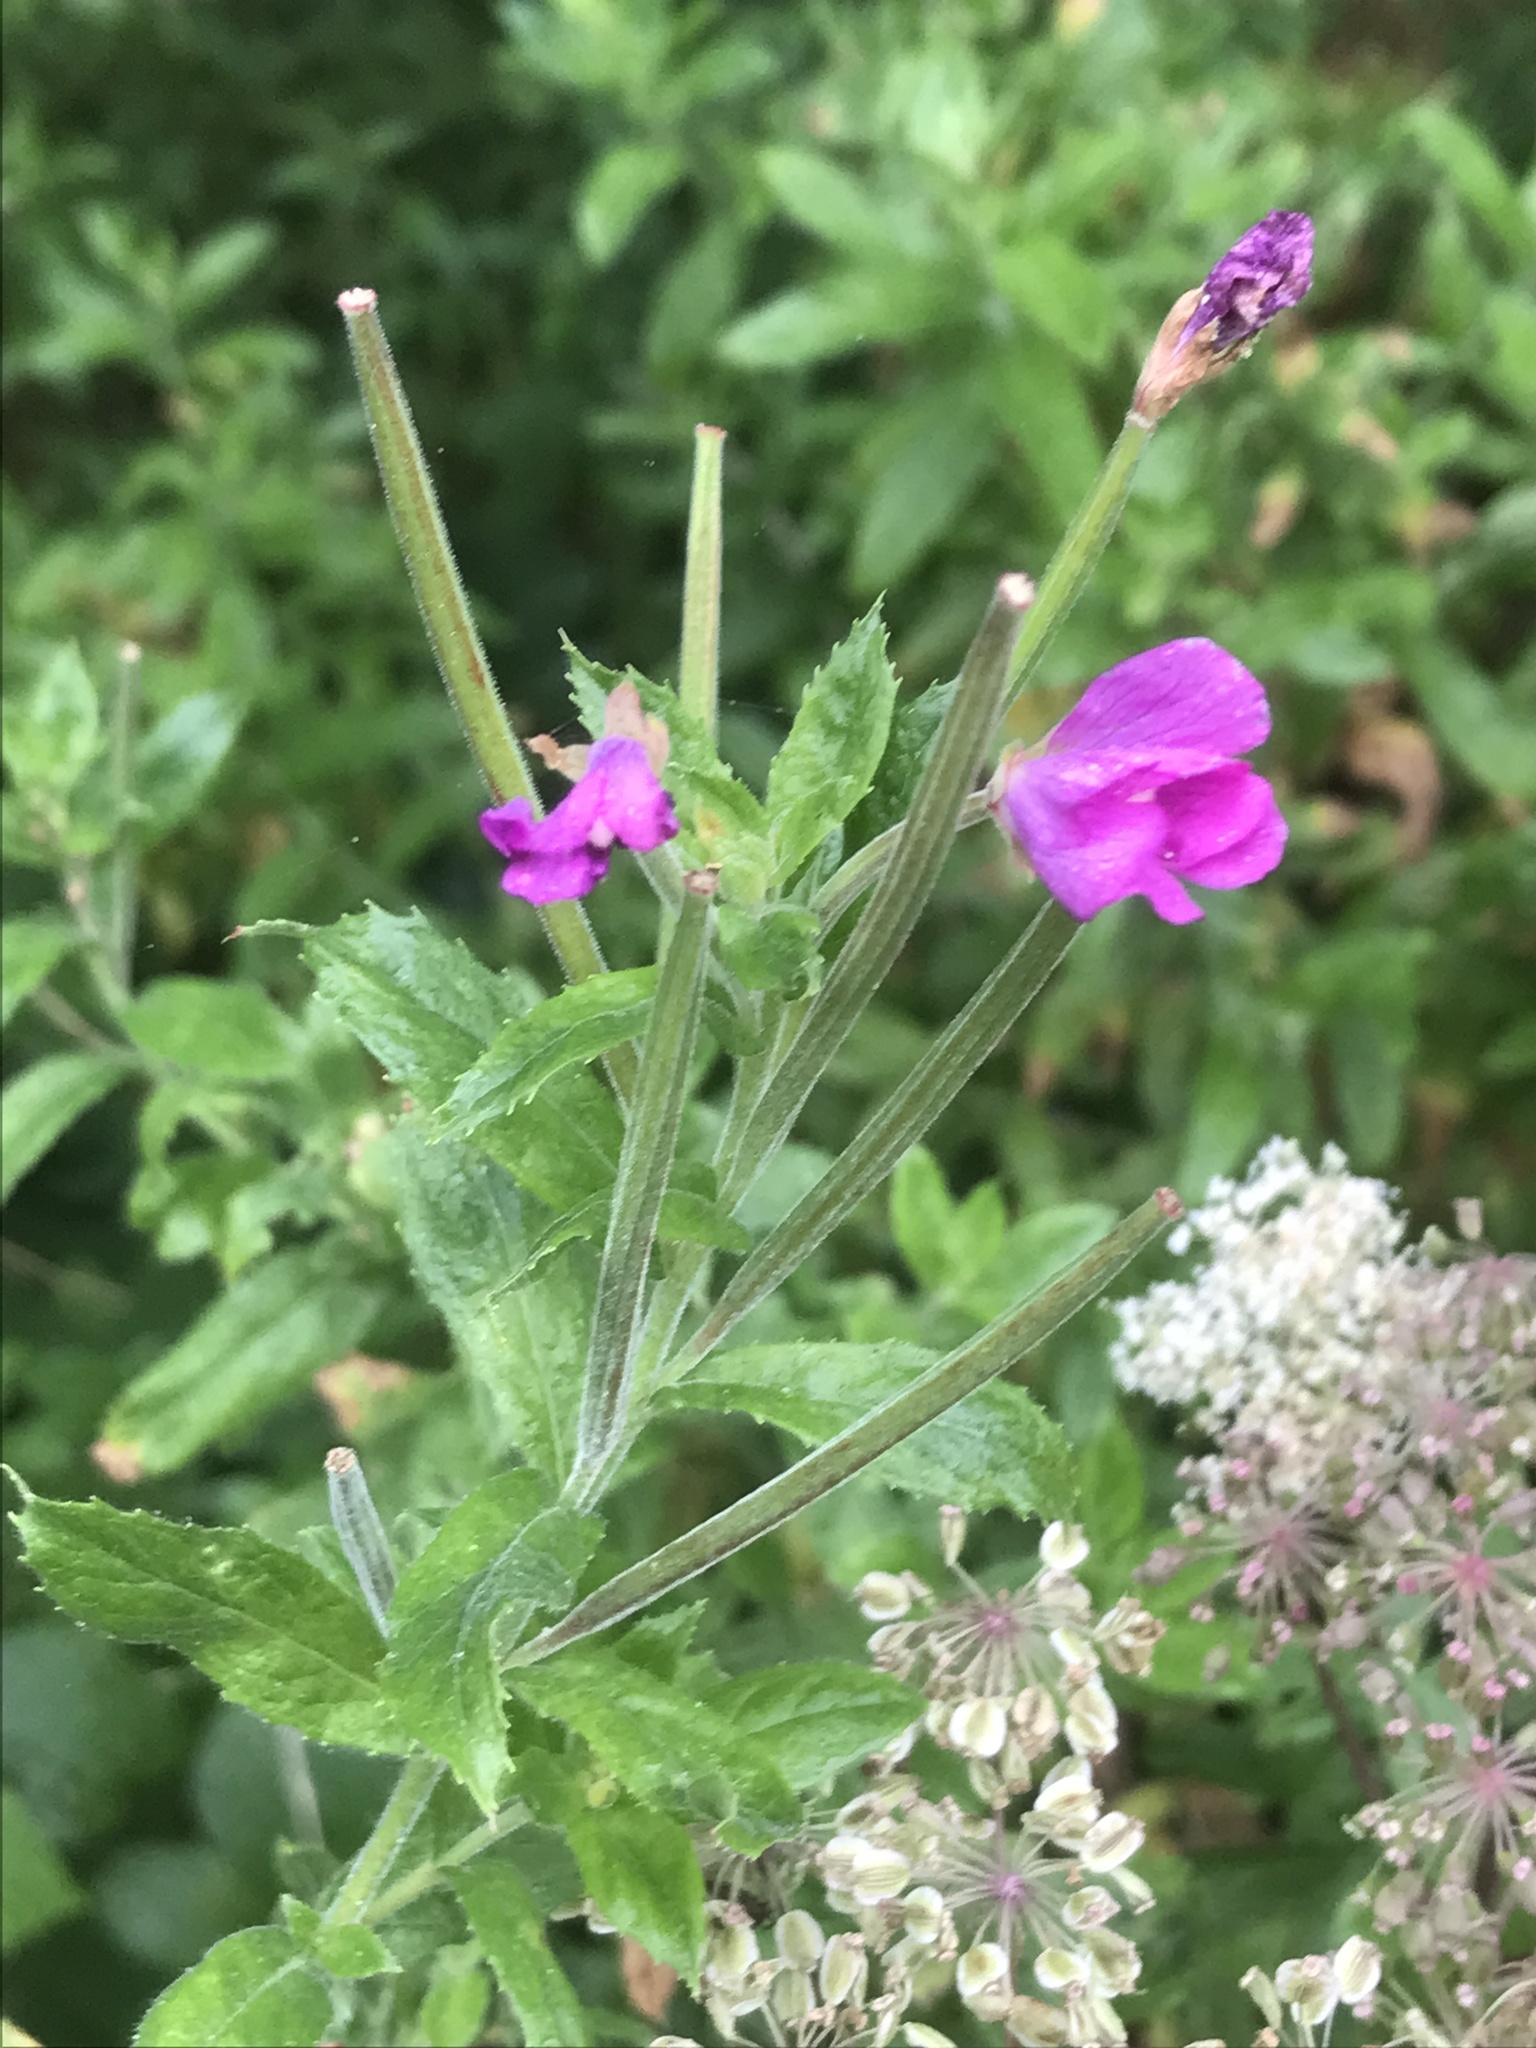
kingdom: Plantae
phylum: Tracheophyta
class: Magnoliopsida
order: Myrtales
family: Onagraceae
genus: Epilobium
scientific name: Epilobium hirsutum
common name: Great willowherb
